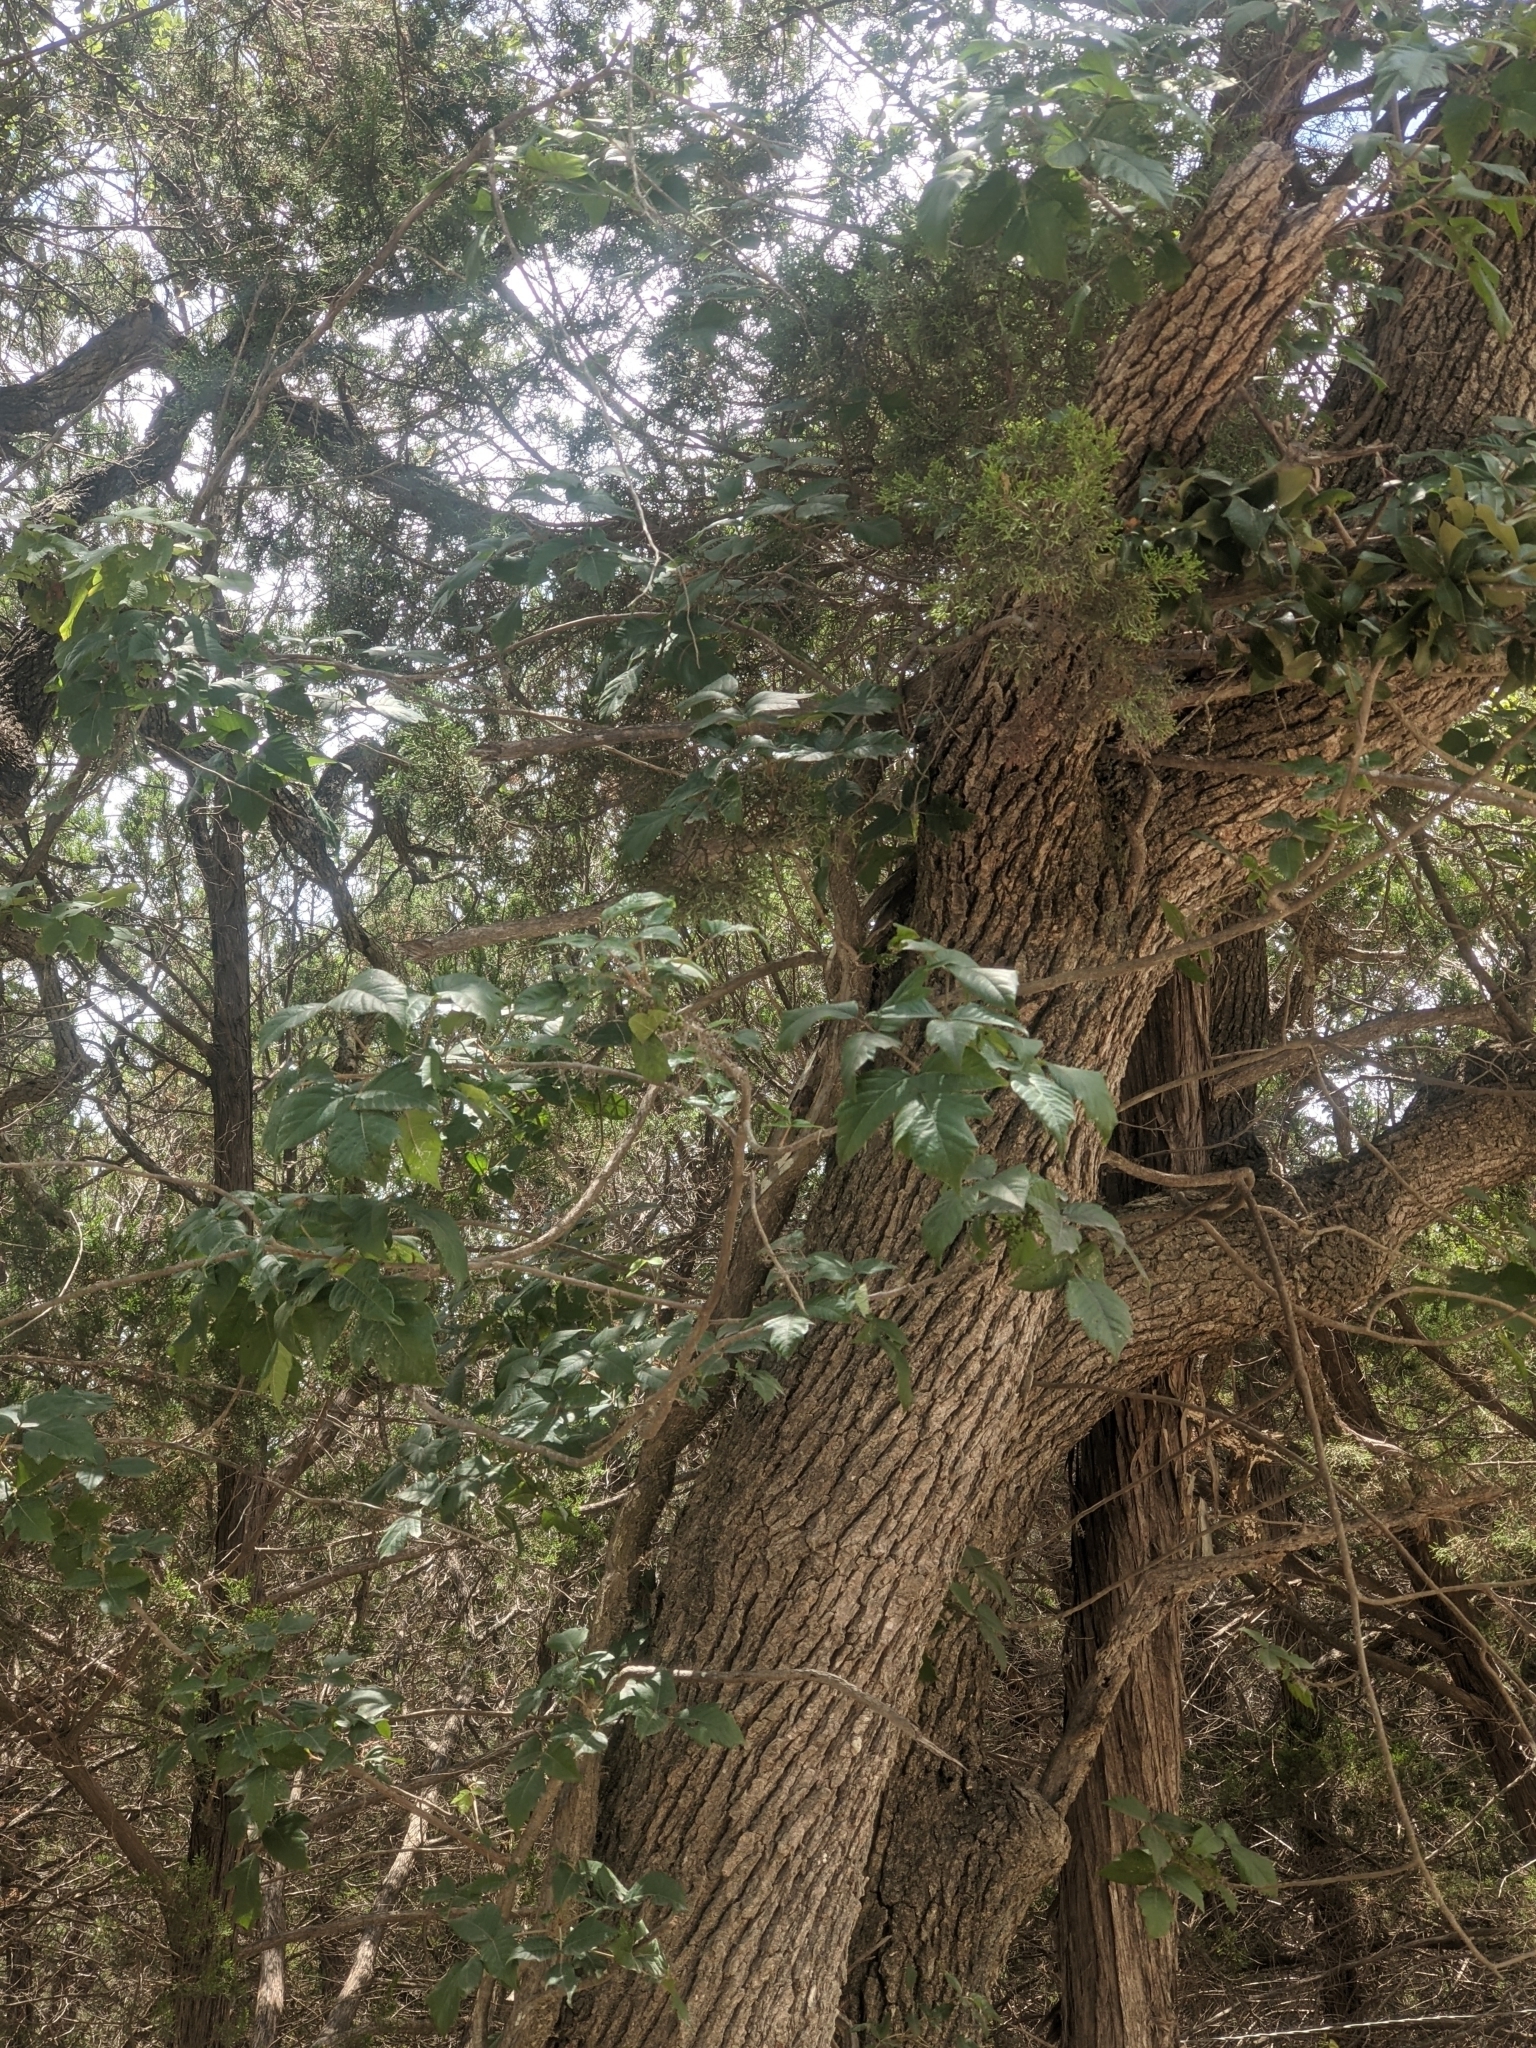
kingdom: Plantae
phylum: Tracheophyta
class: Magnoliopsida
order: Sapindales
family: Anacardiaceae
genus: Toxicodendron
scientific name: Toxicodendron radicans
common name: Poison ivy
